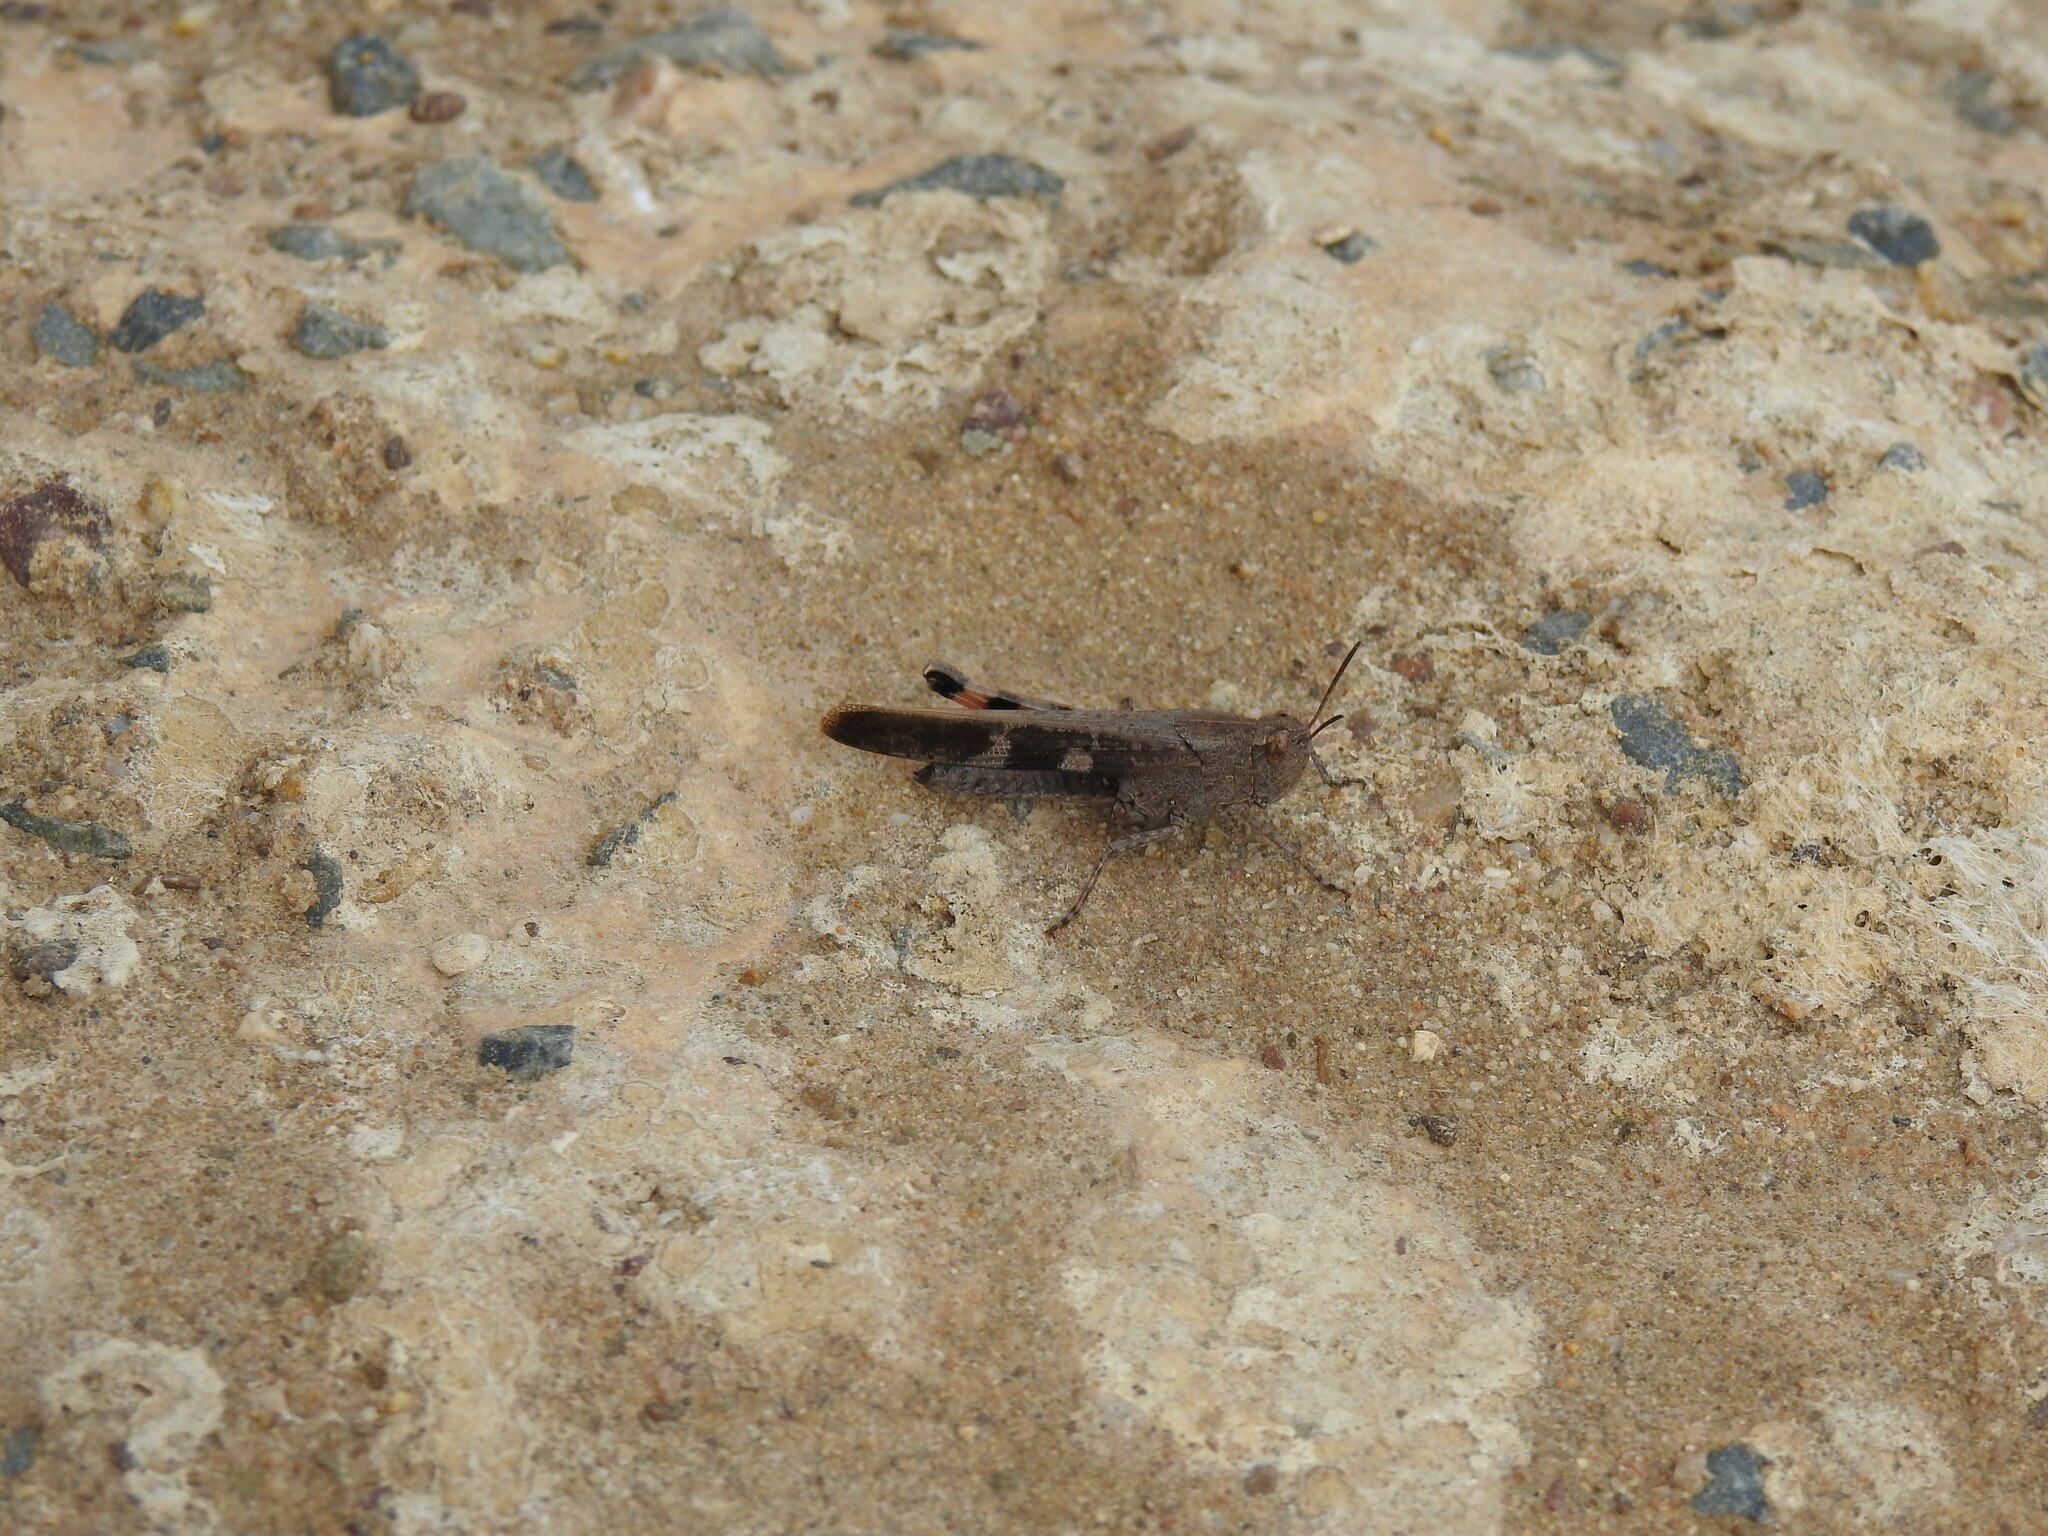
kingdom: Animalia
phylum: Arthropoda
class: Insecta
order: Orthoptera
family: Acrididae
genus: Aiolopus
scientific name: Aiolopus strepens
